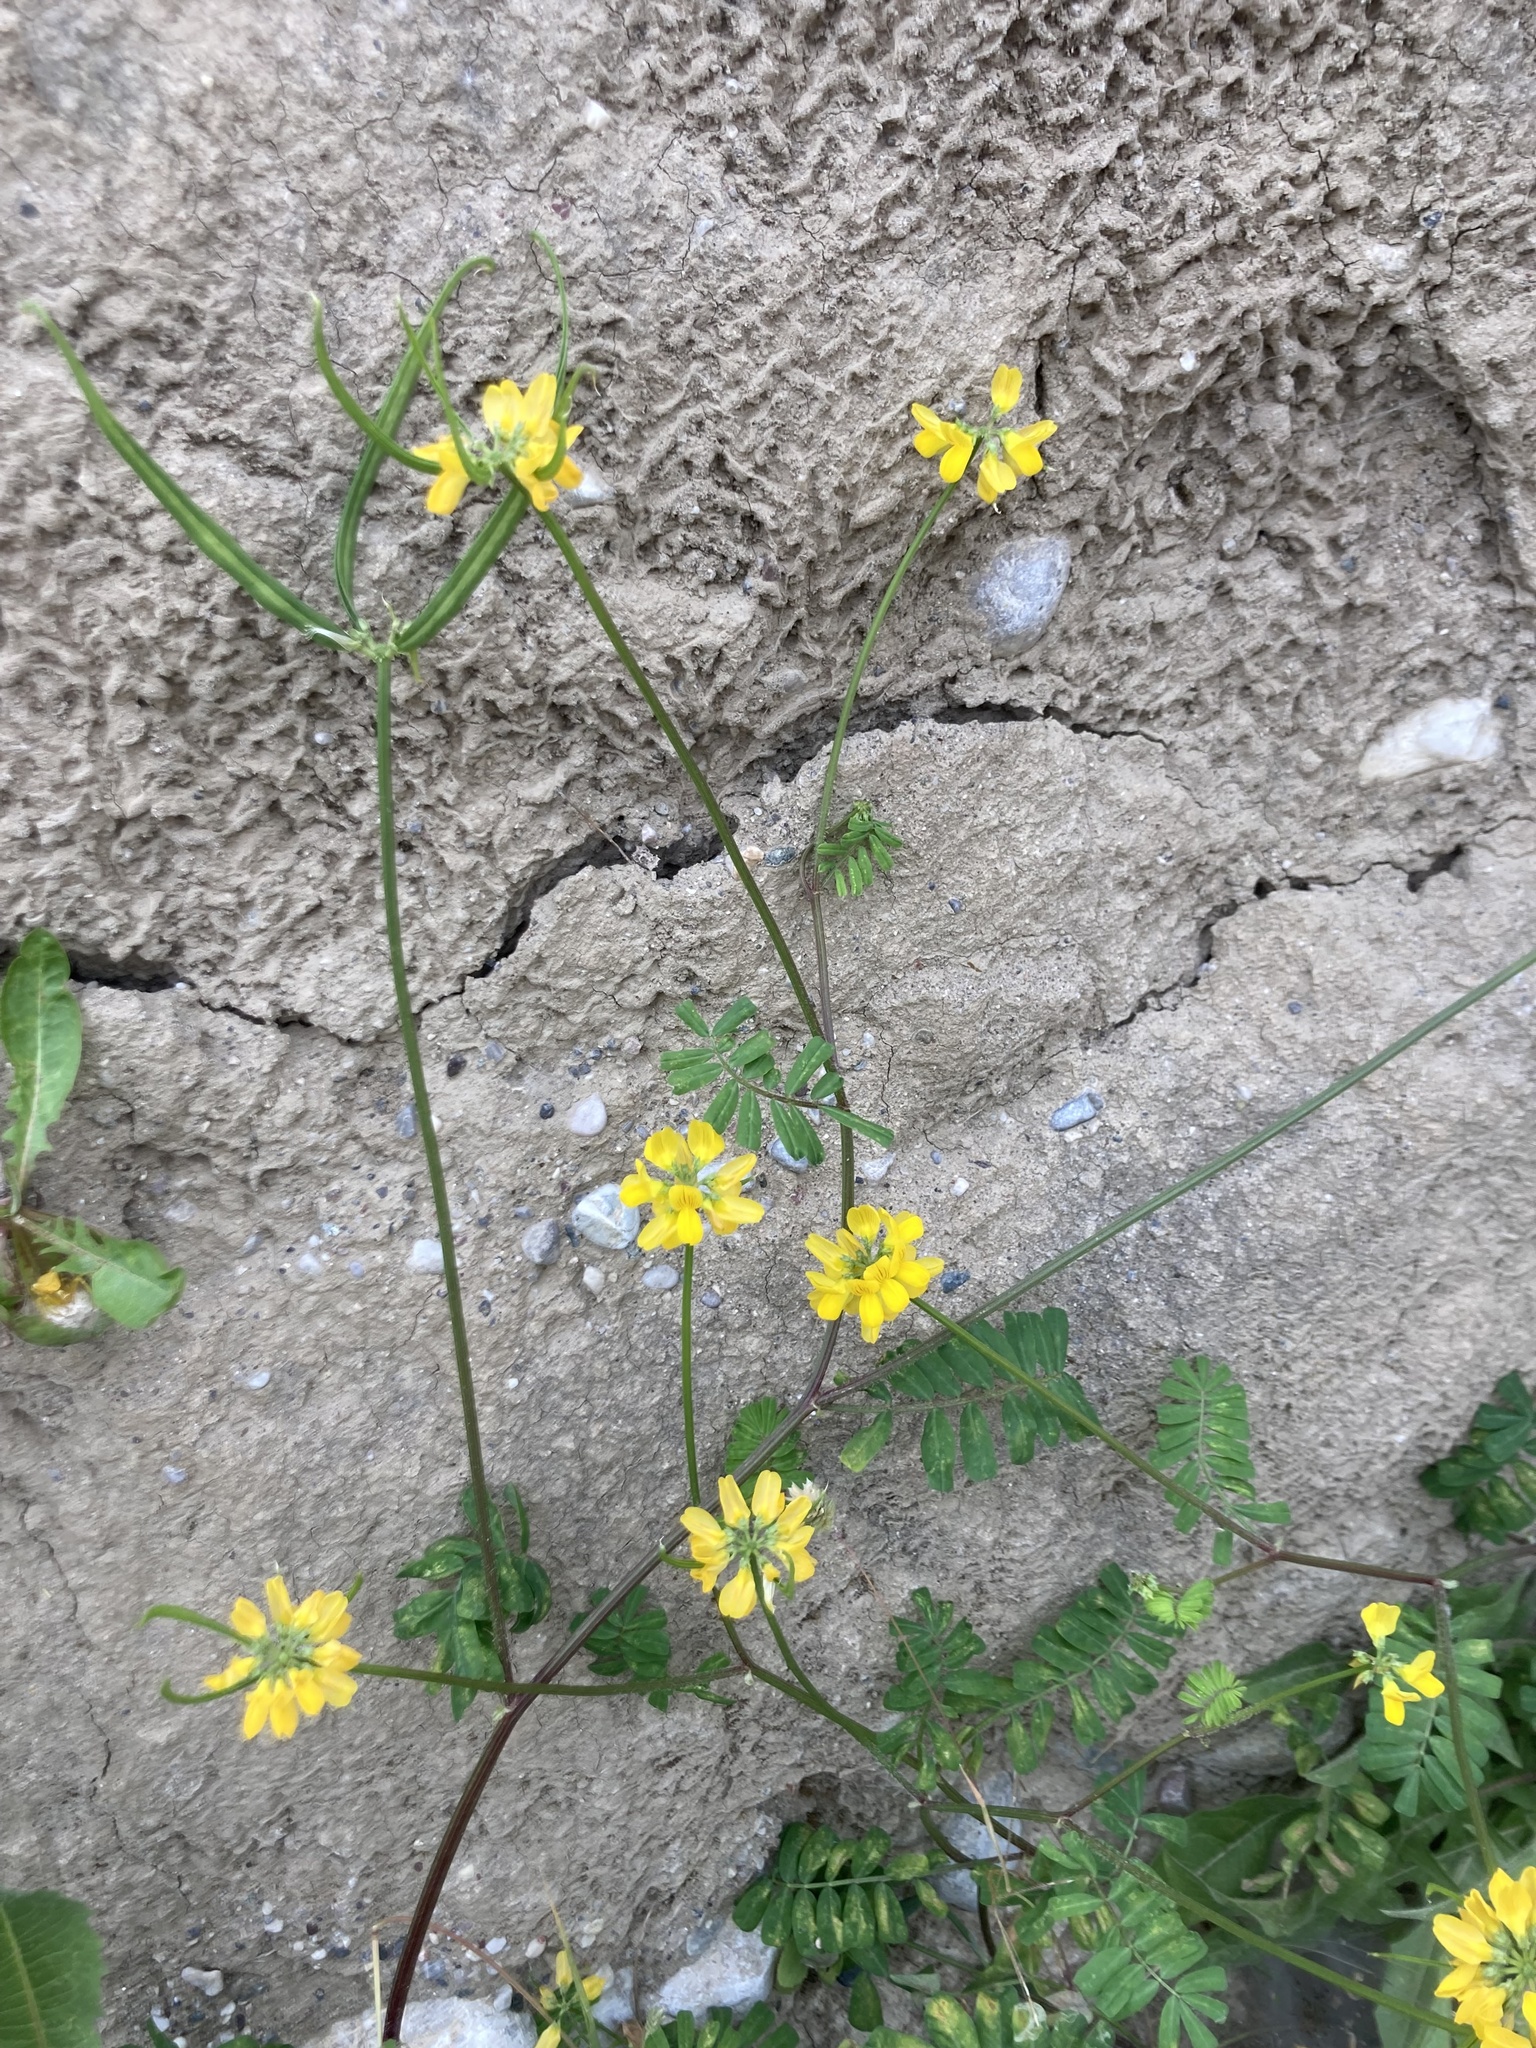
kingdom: Plantae
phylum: Tracheophyta
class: Magnoliopsida
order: Fabales
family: Fabaceae
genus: Coronilla
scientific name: Coronilla securidaca
